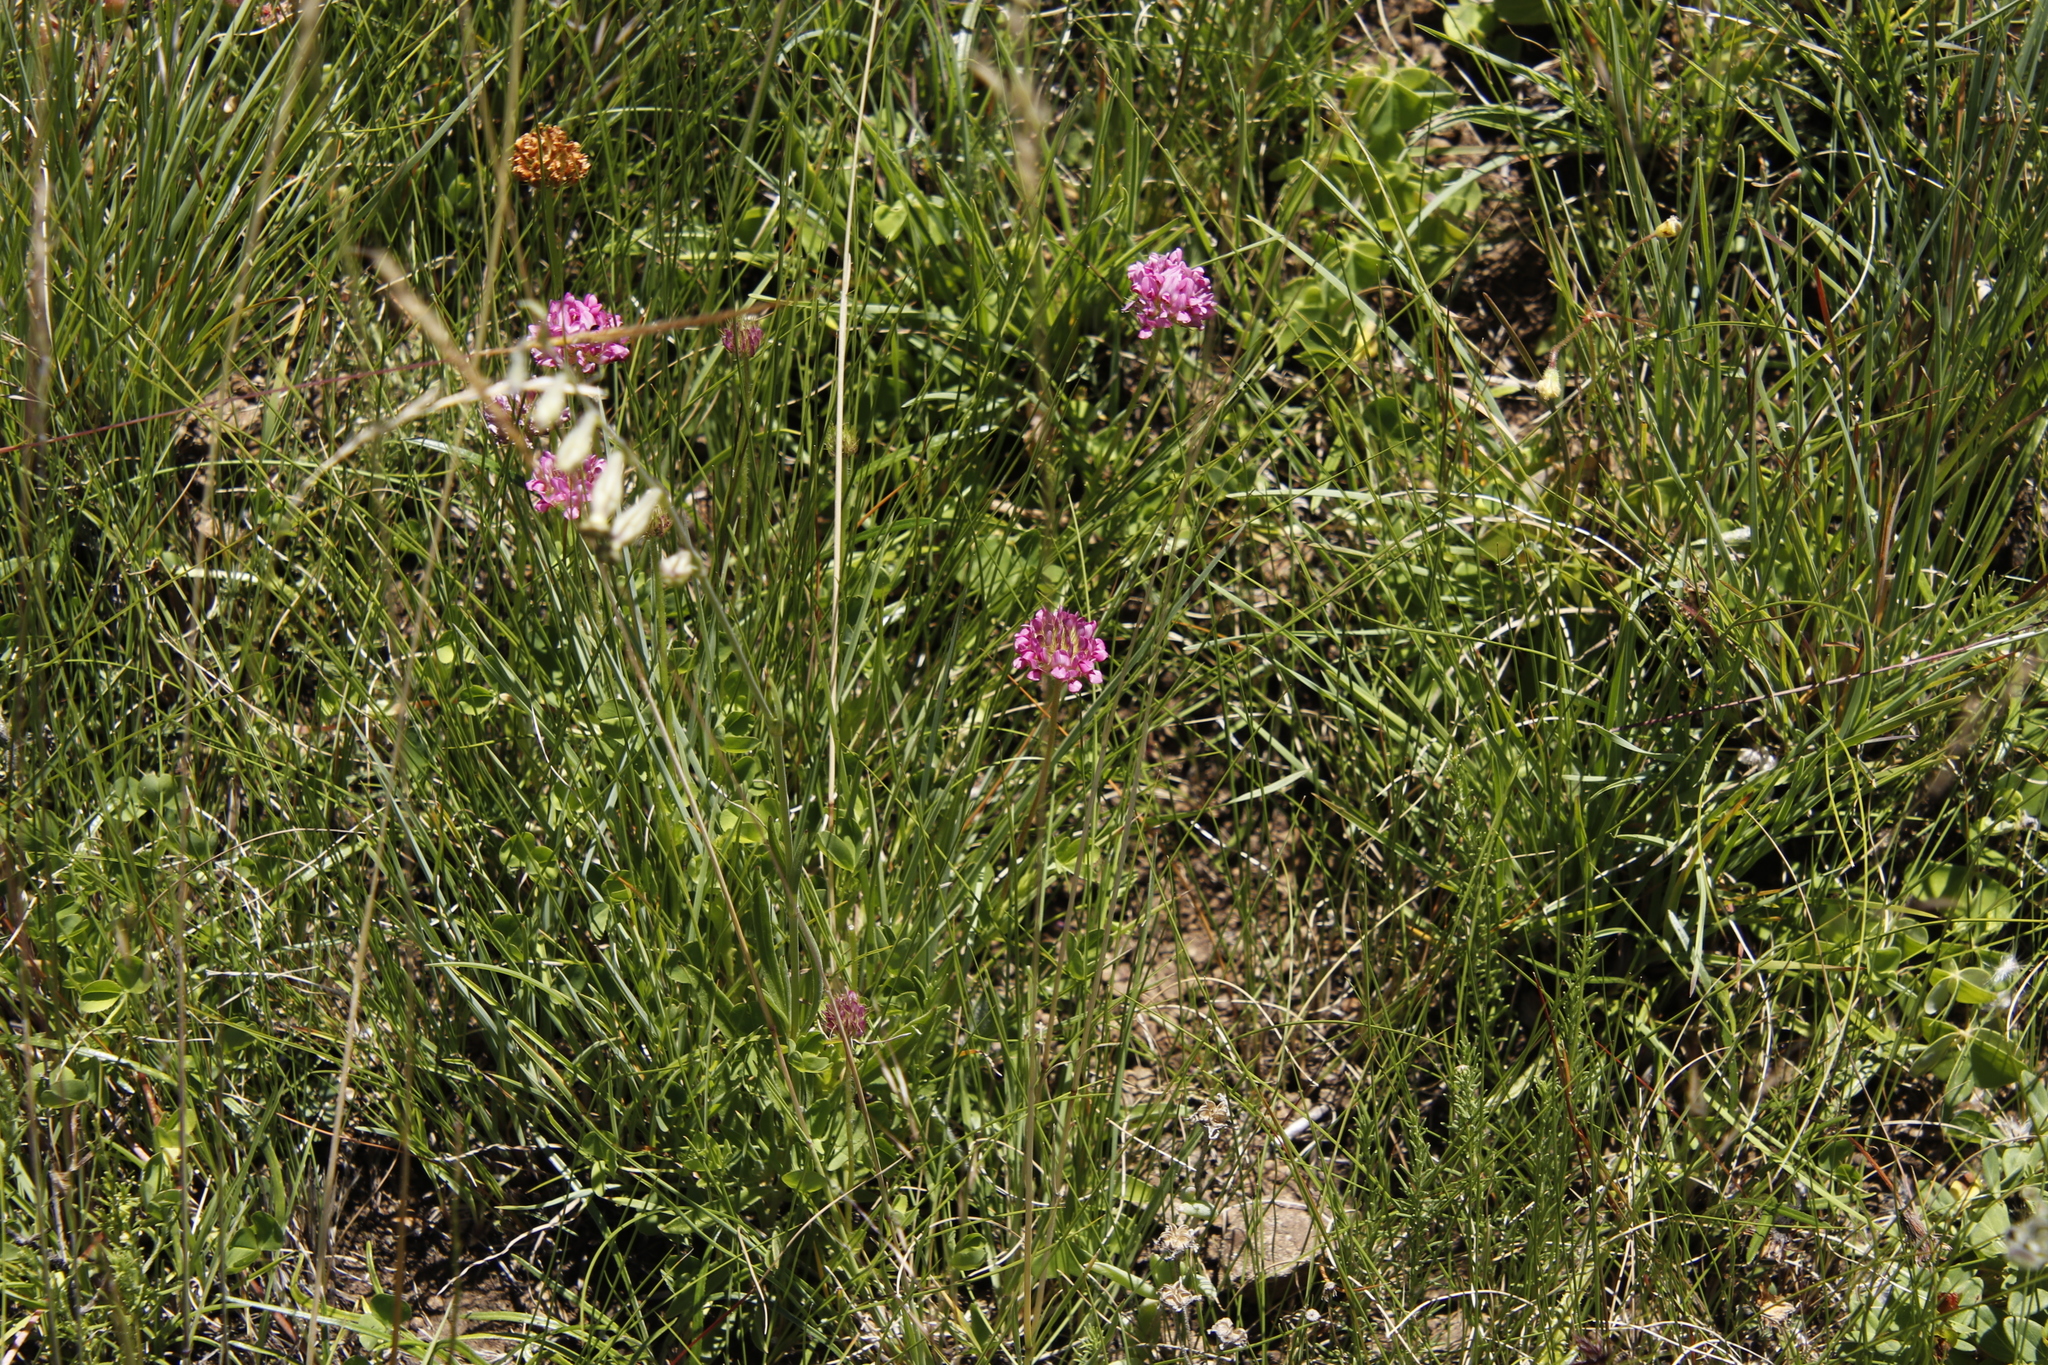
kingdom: Plantae
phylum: Tracheophyta
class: Magnoliopsida
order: Fabales
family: Fabaceae
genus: Trifolium
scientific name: Trifolium burchellianum
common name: Burchell's clover
